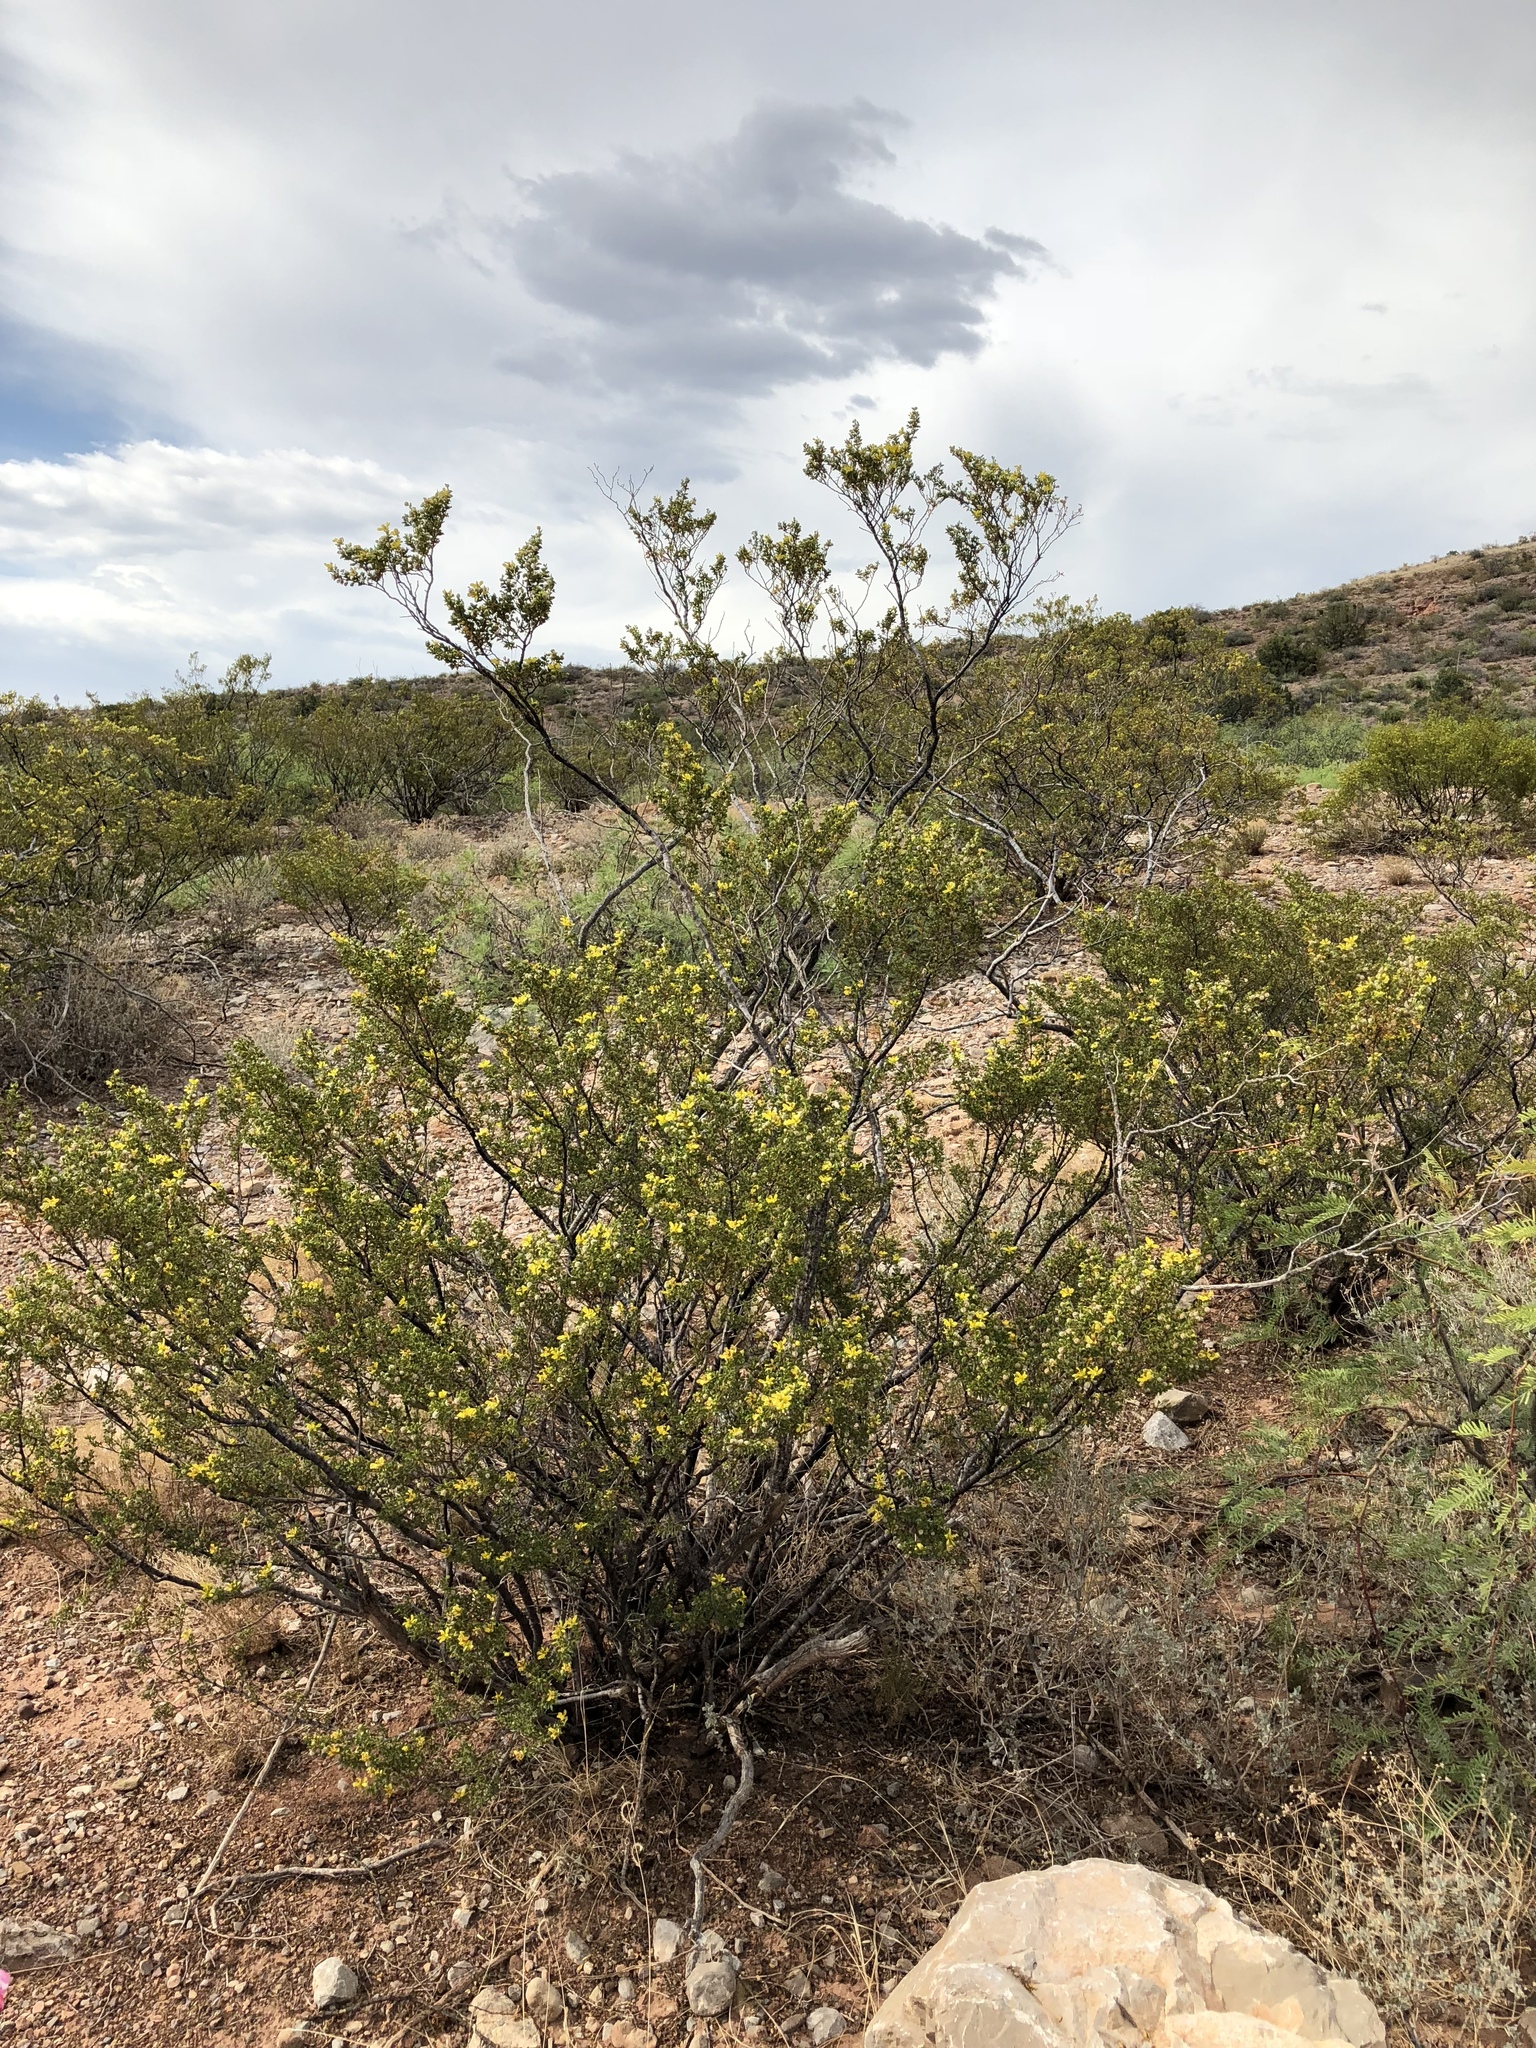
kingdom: Plantae
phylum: Tracheophyta
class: Magnoliopsida
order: Zygophyllales
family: Zygophyllaceae
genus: Larrea
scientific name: Larrea tridentata
